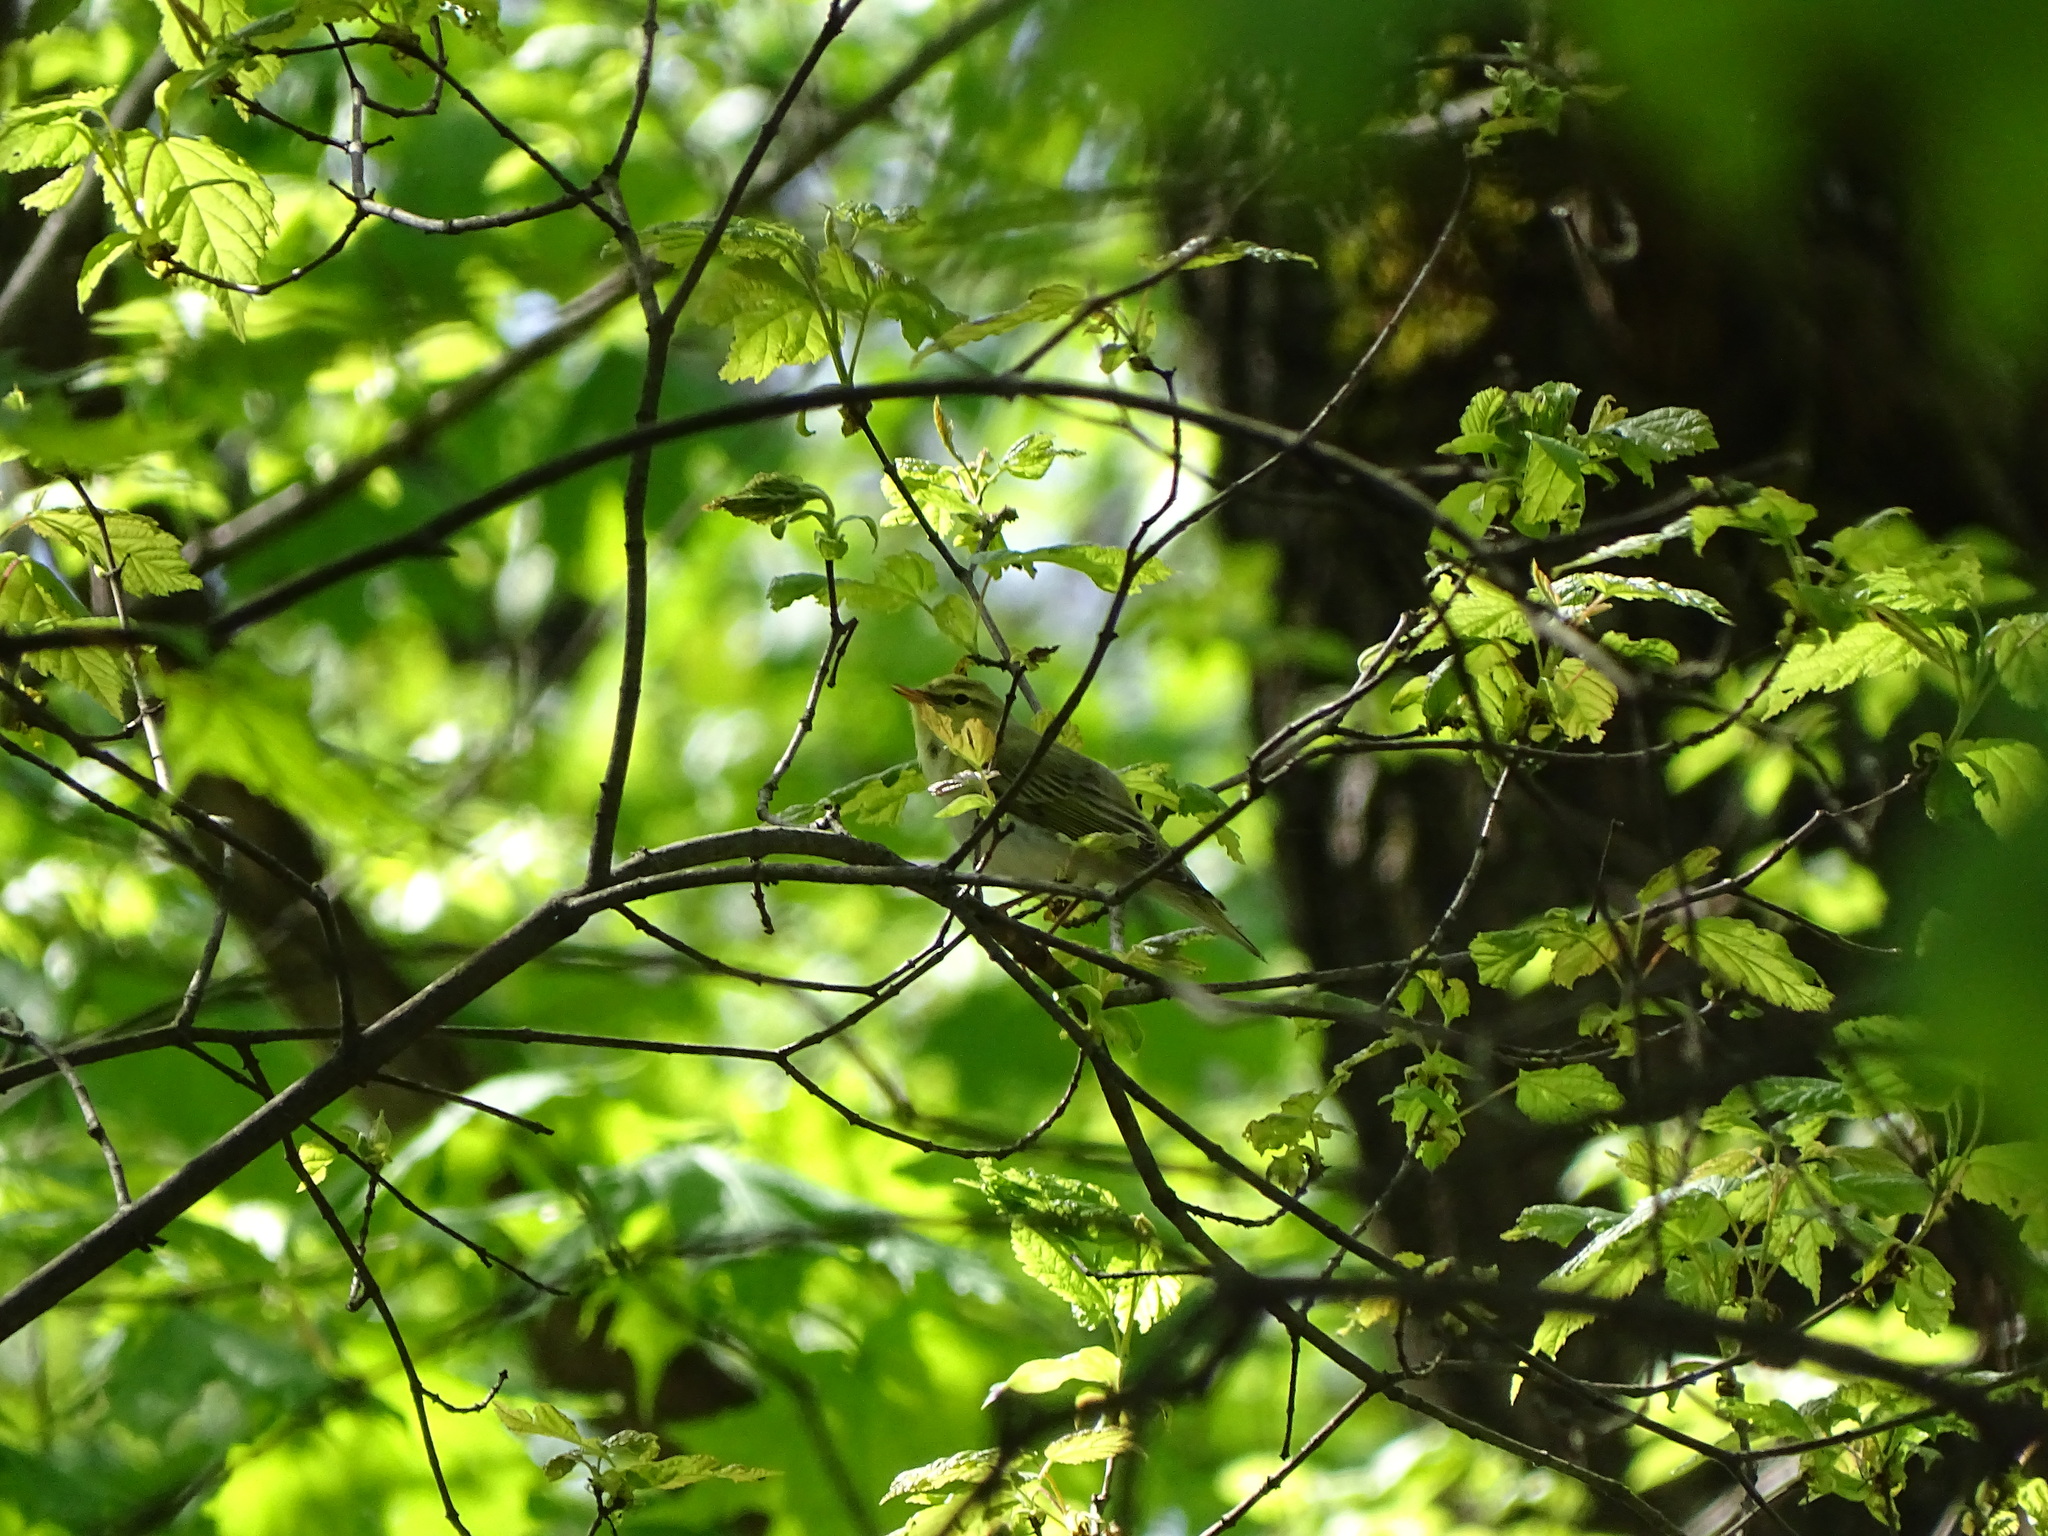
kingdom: Animalia
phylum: Chordata
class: Aves
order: Passeriformes
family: Phylloscopidae
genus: Phylloscopus
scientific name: Phylloscopus sibillatrix
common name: Wood warbler
